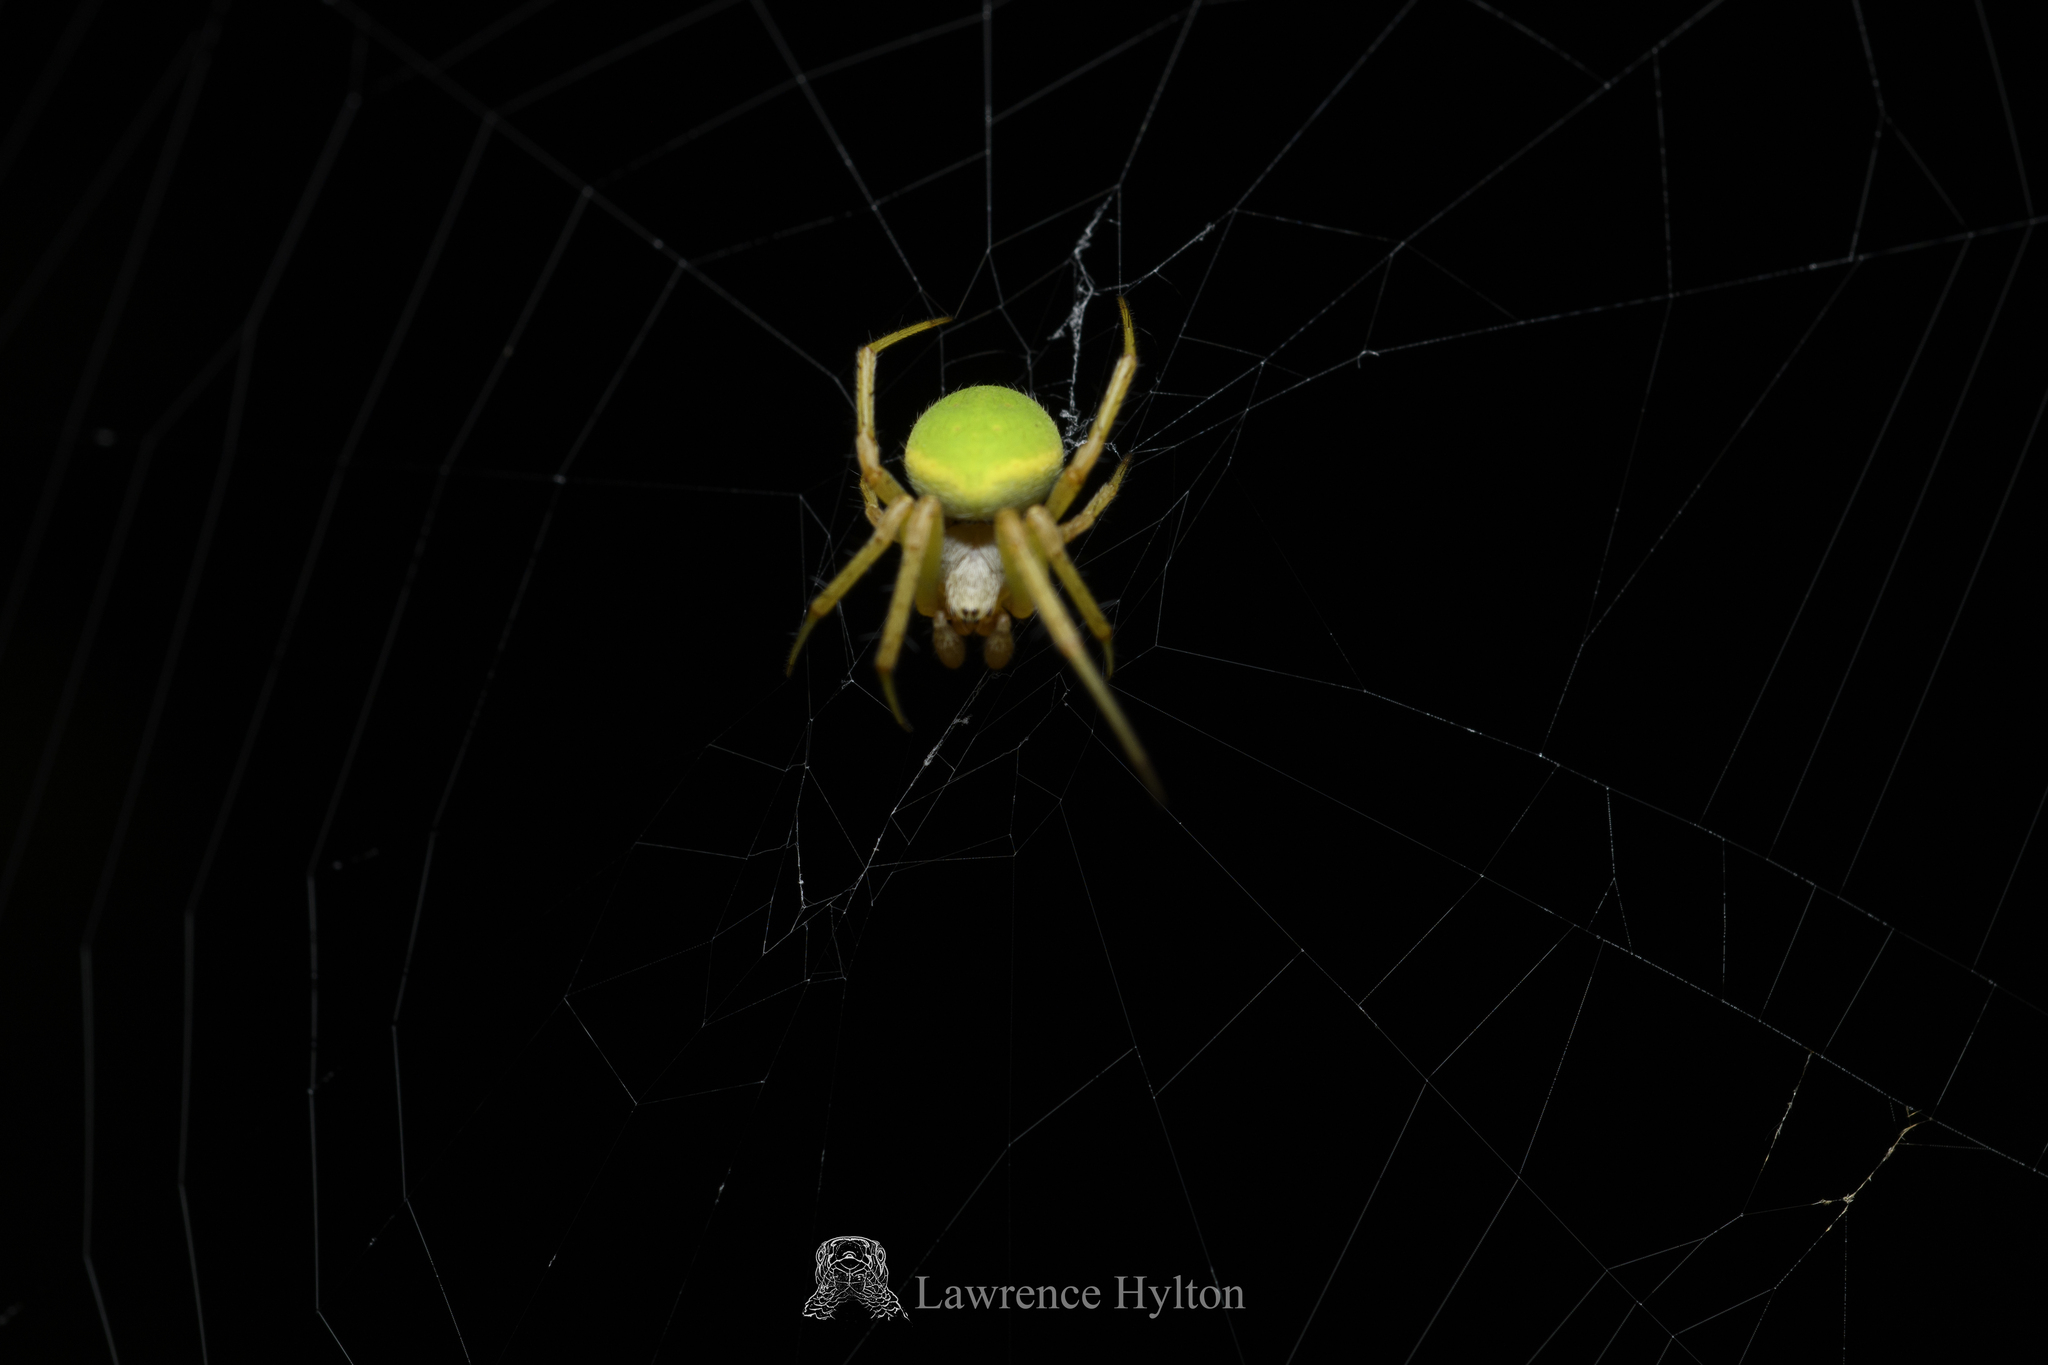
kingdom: Animalia
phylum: Arthropoda
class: Arachnida
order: Araneae
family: Araneidae
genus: Neoscona
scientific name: Neoscona scylloides
